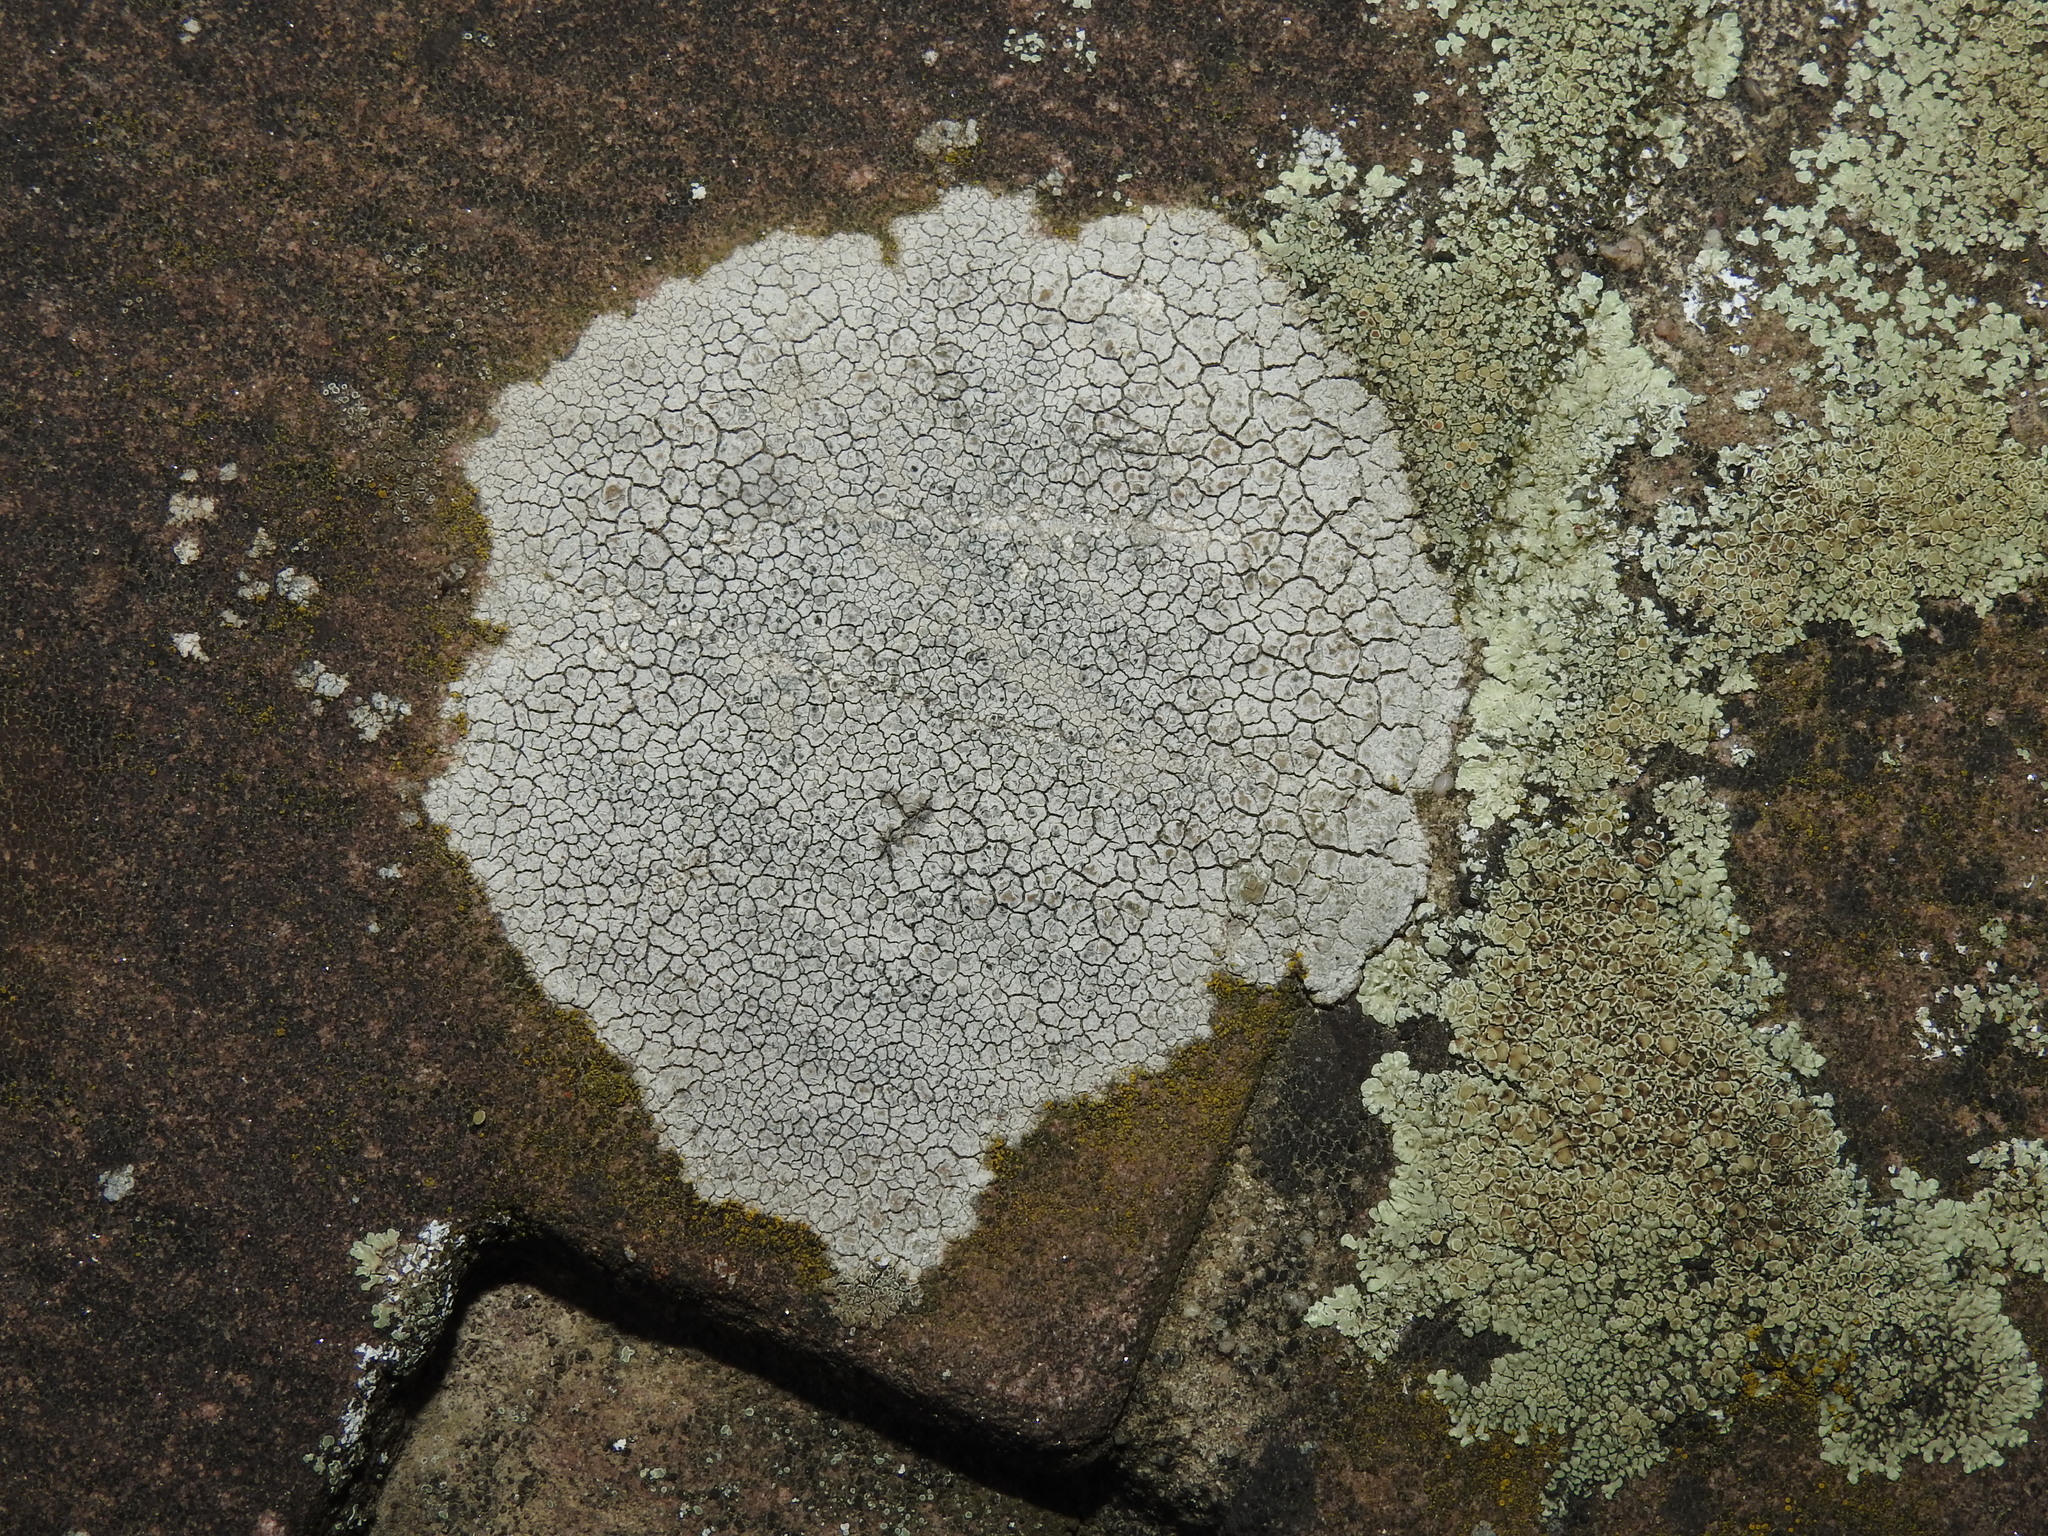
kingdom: Fungi
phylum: Ascomycota
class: Lecanoromycetes
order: Lecanorales
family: Lecanoraceae
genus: Glaucomaria
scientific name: Glaucomaria rupicola
